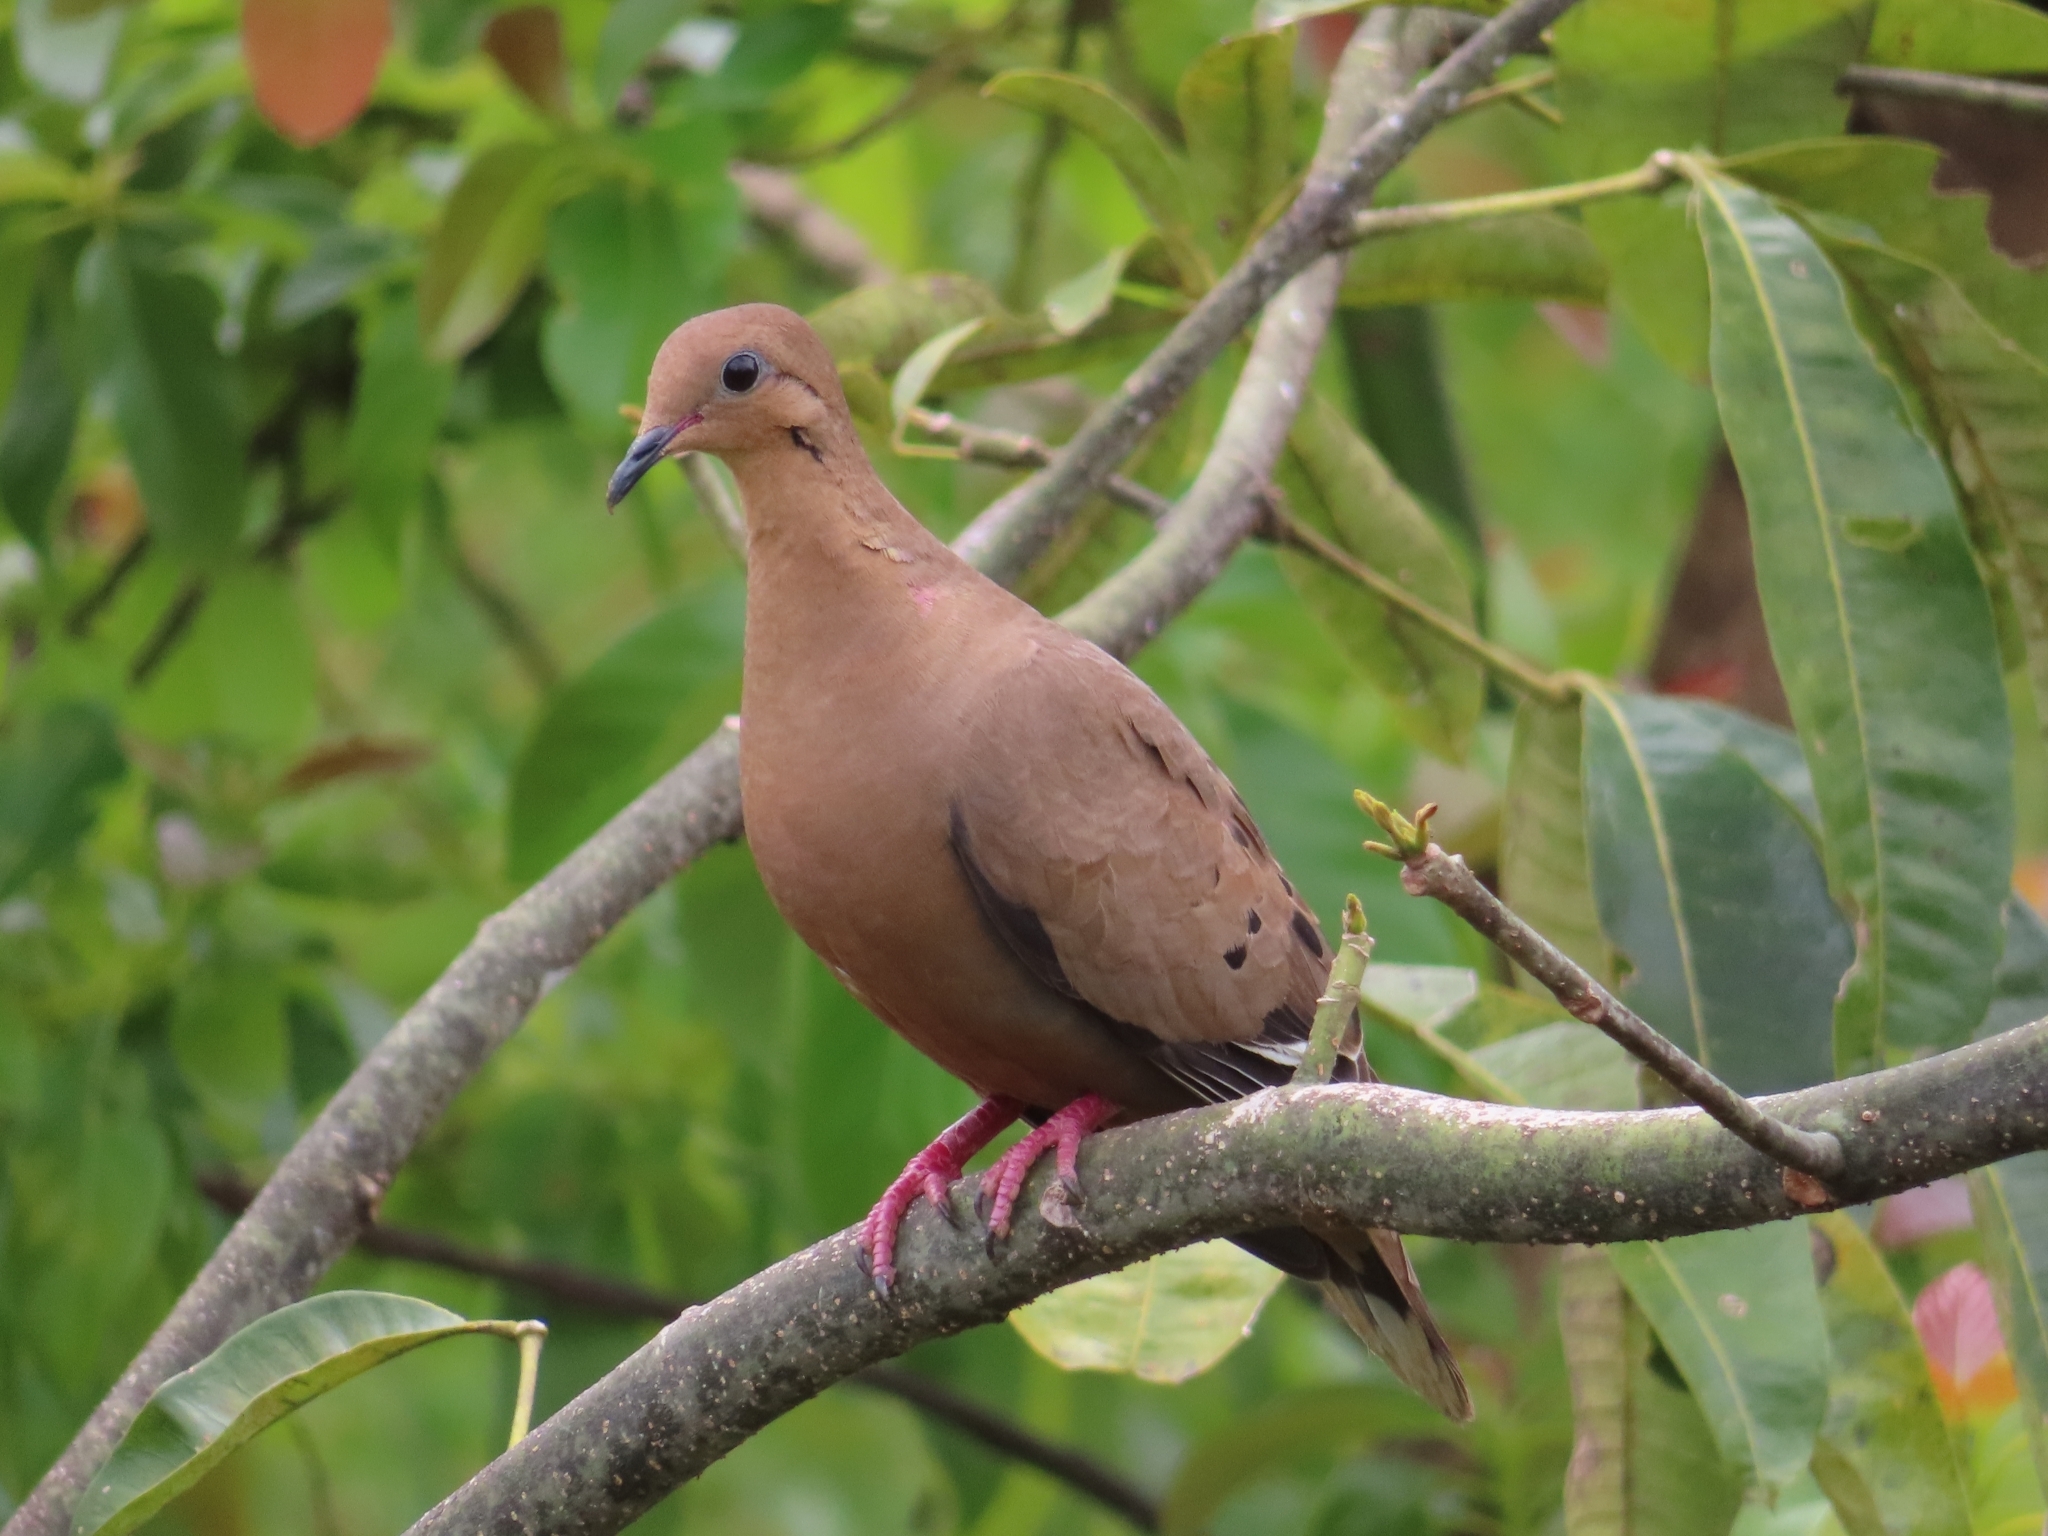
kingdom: Animalia
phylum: Chordata
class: Aves
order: Columbiformes
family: Columbidae
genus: Zenaida
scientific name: Zenaida aurita
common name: Zenaida dove
